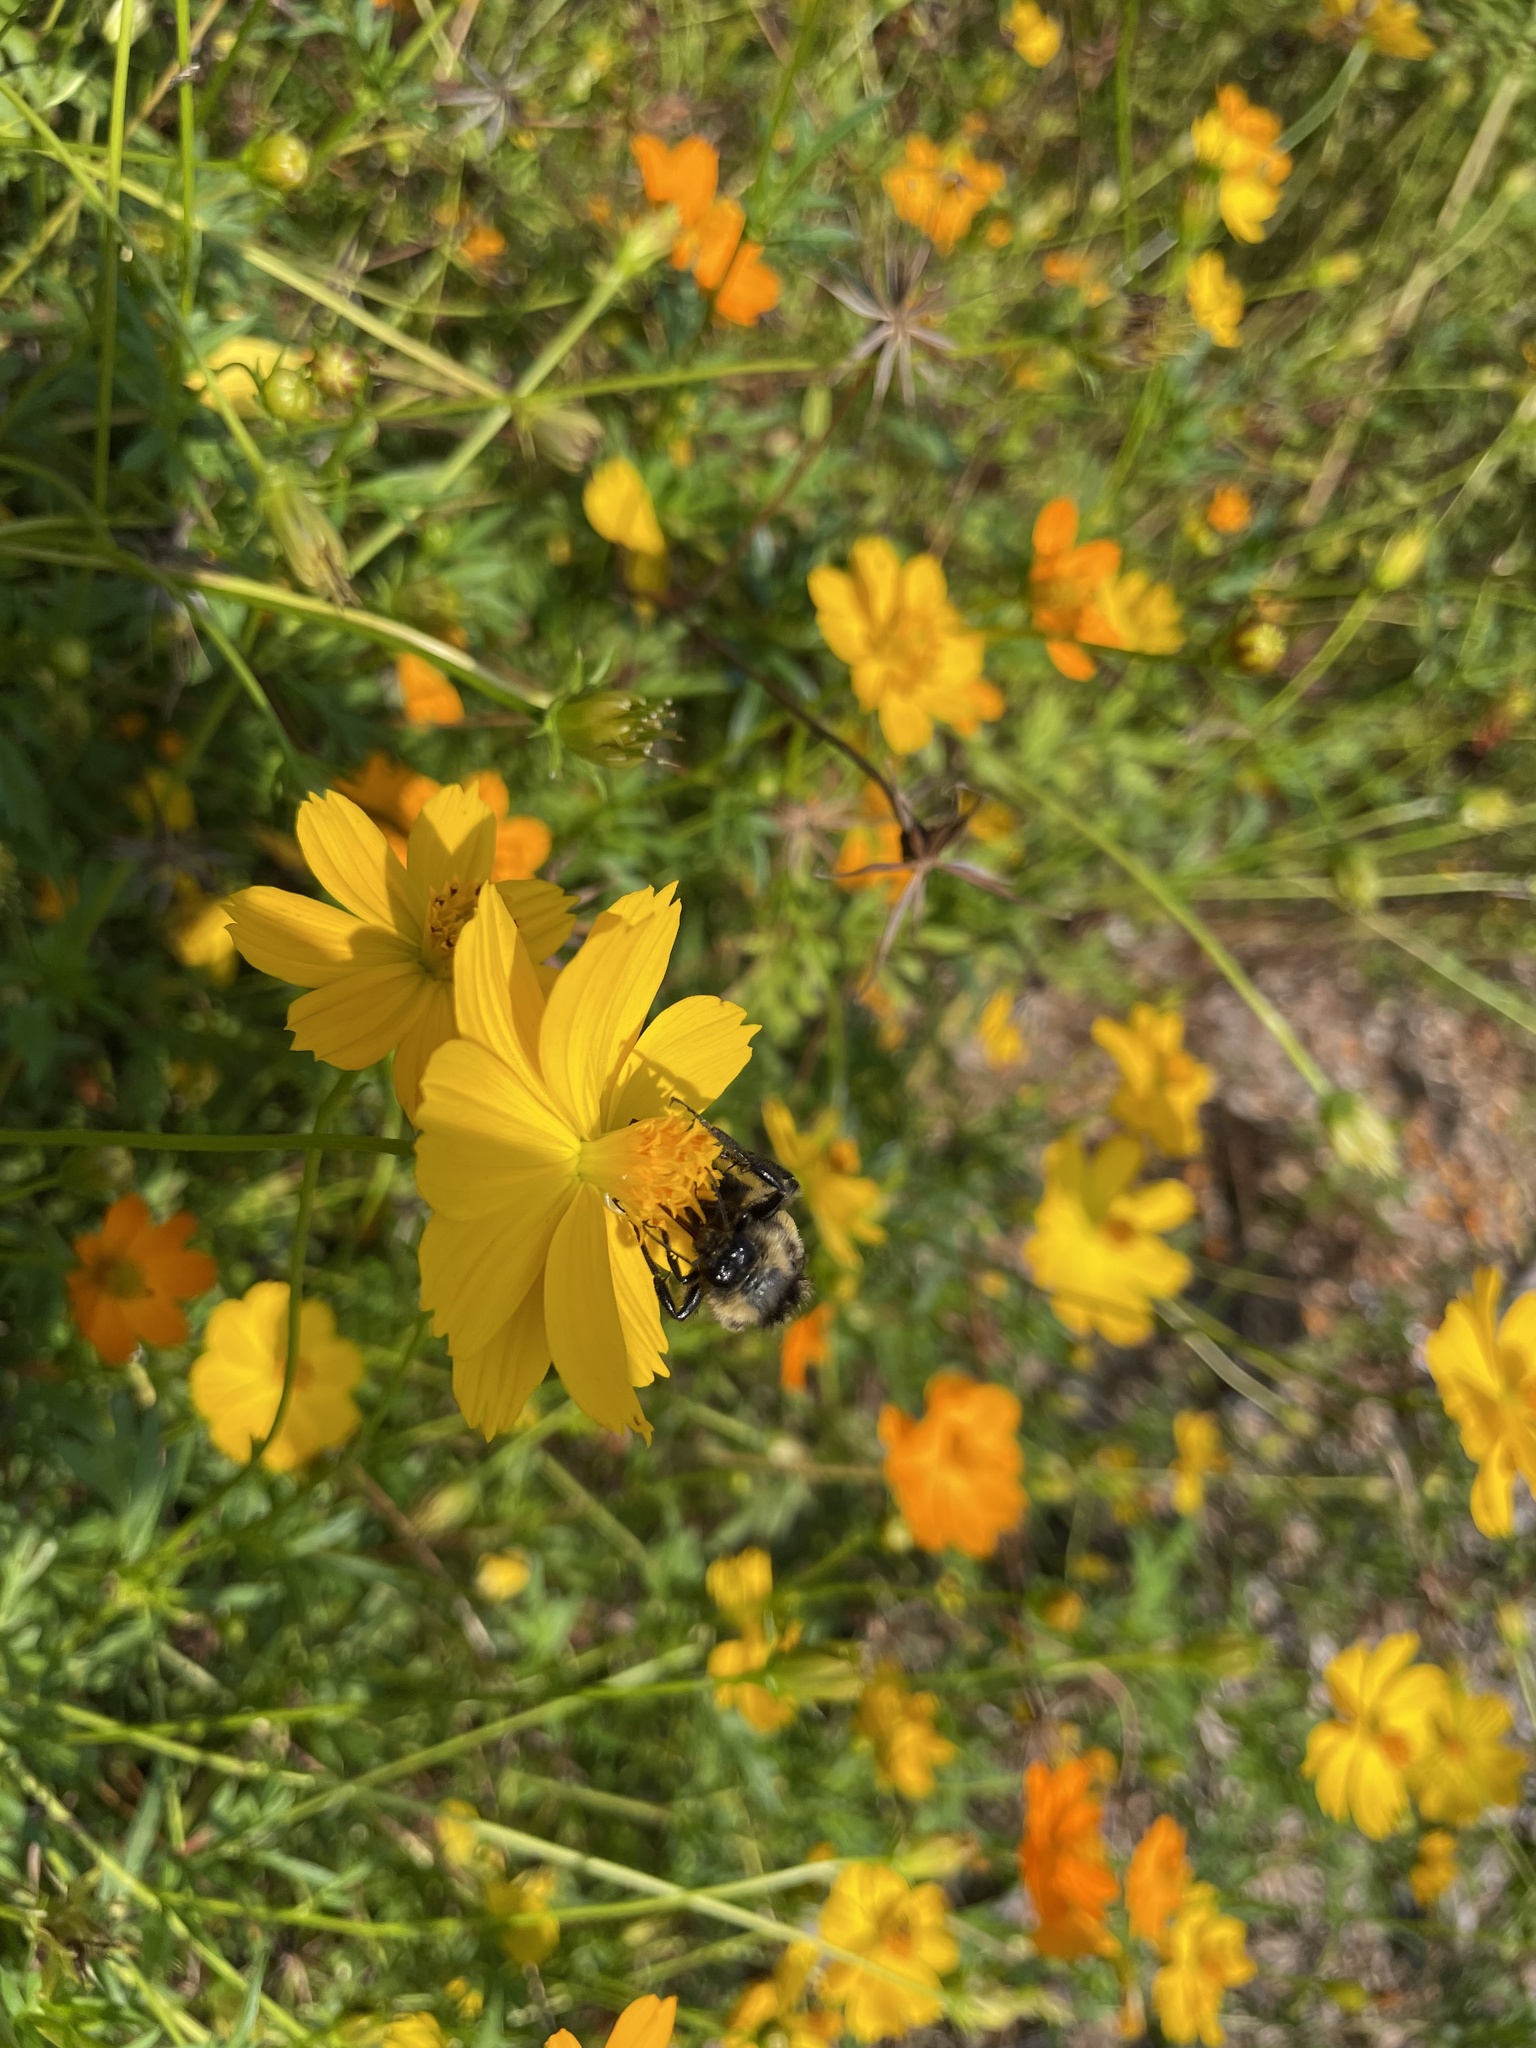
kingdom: Animalia
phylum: Arthropoda
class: Insecta
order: Hymenoptera
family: Apidae
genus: Bombus
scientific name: Bombus pensylvanicus
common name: Bumble bee
